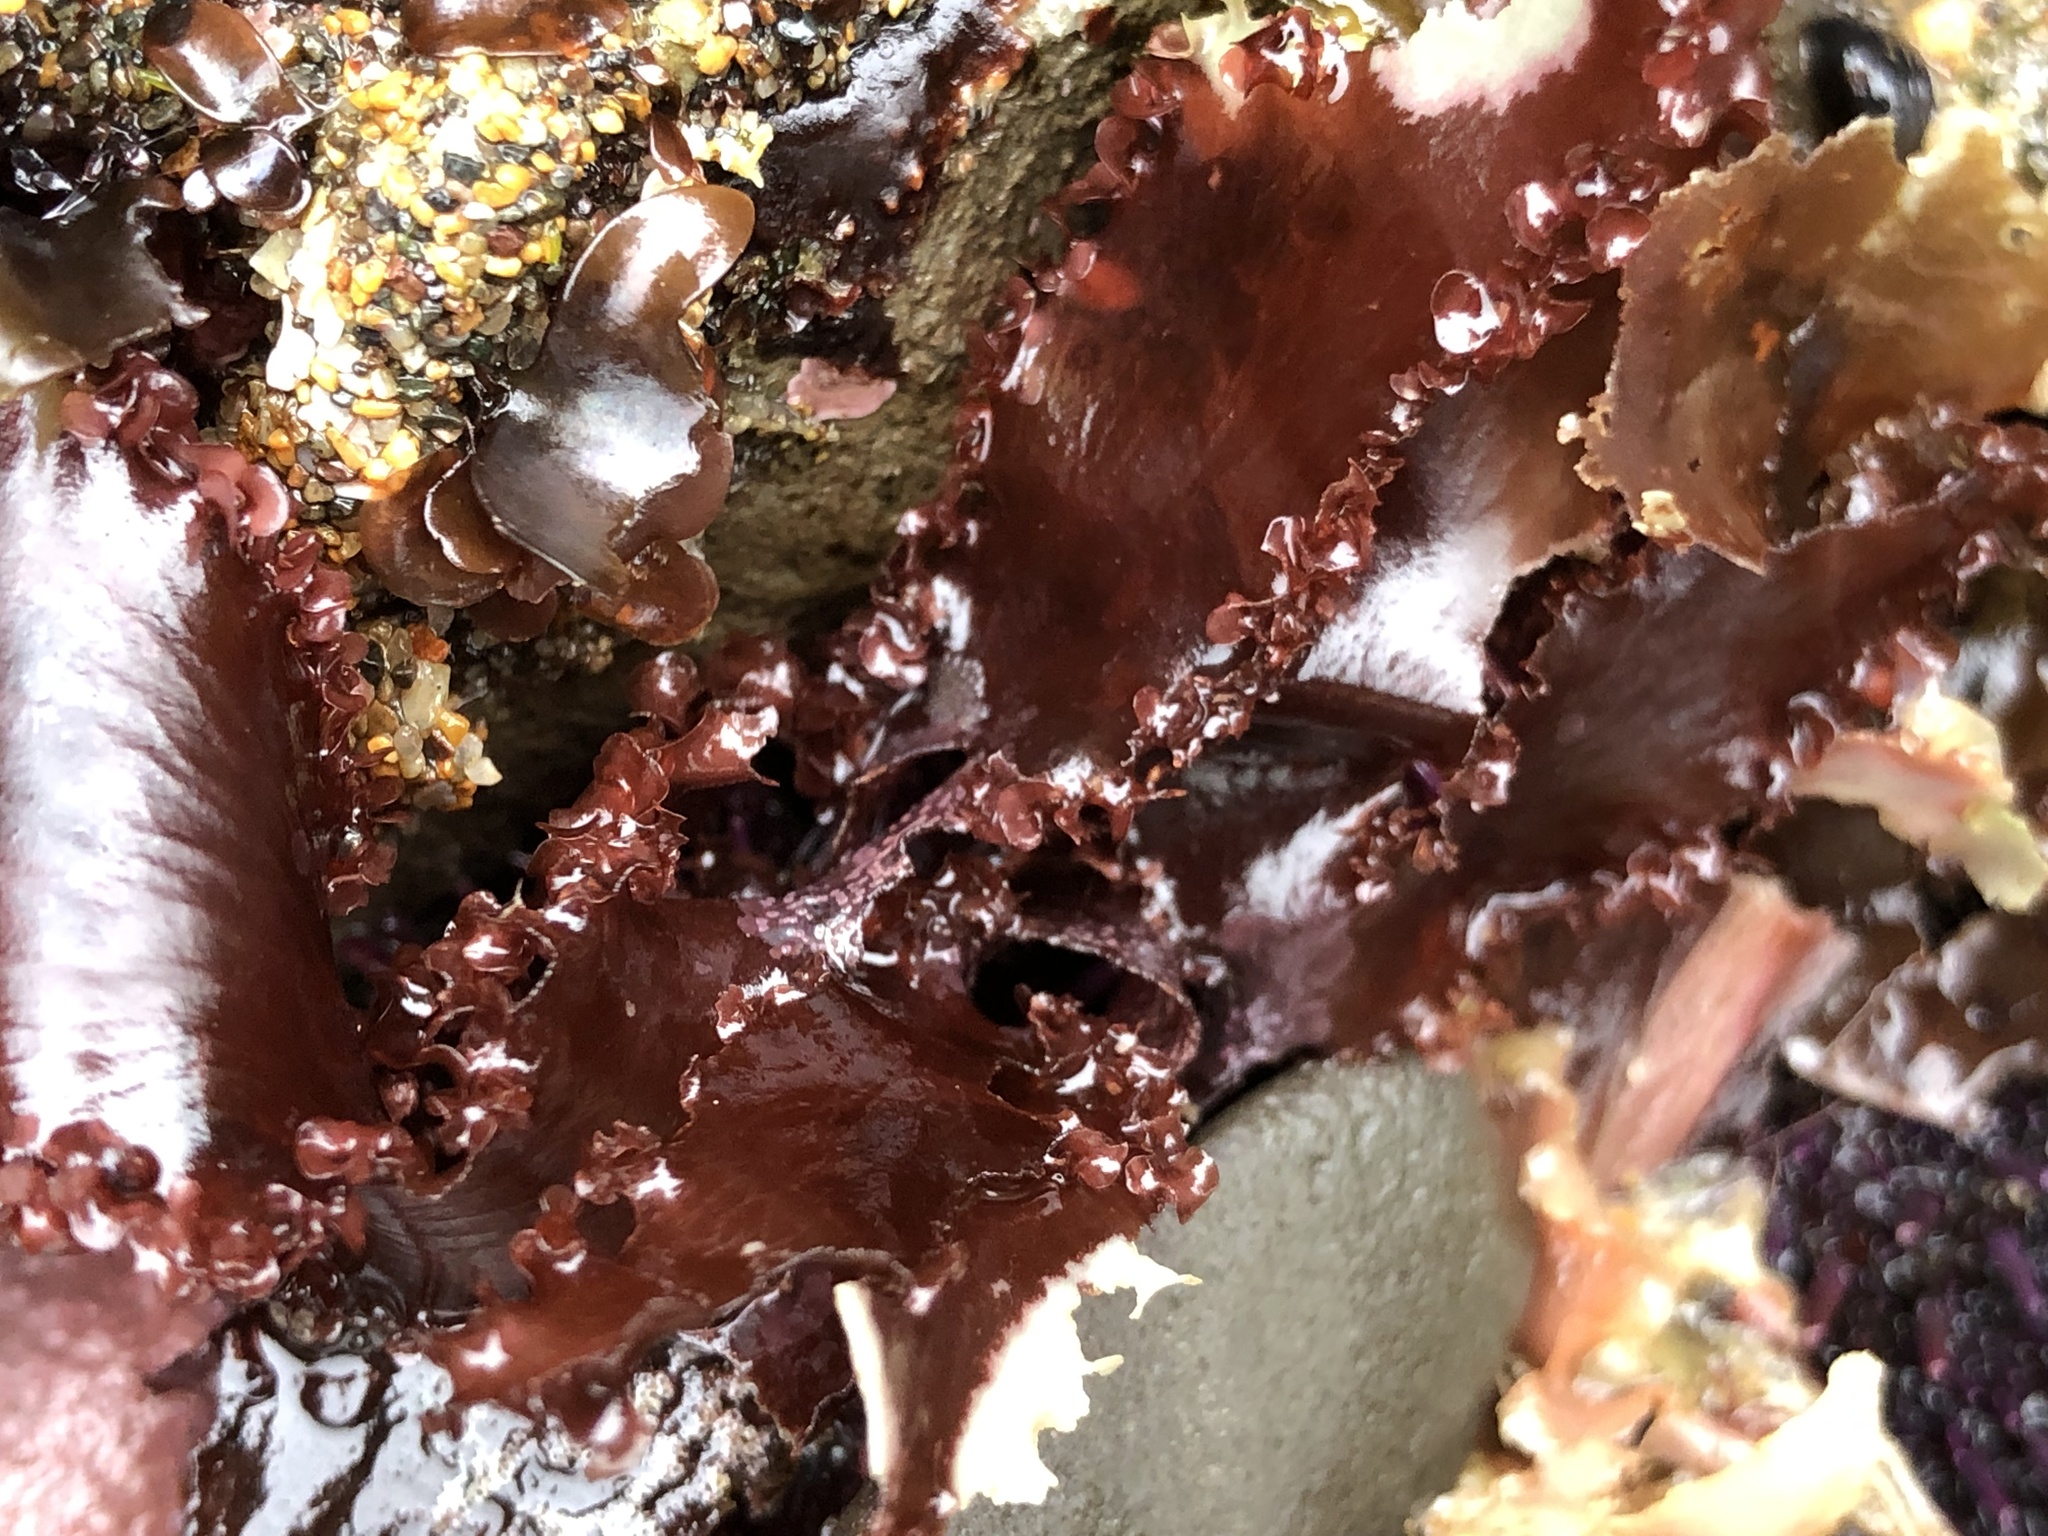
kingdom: Plantae
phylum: Rhodophyta
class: Florideophyceae
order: Ceramiales
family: Delesseriaceae
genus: Cryptopleura
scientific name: Cryptopleura ruprechtiana
